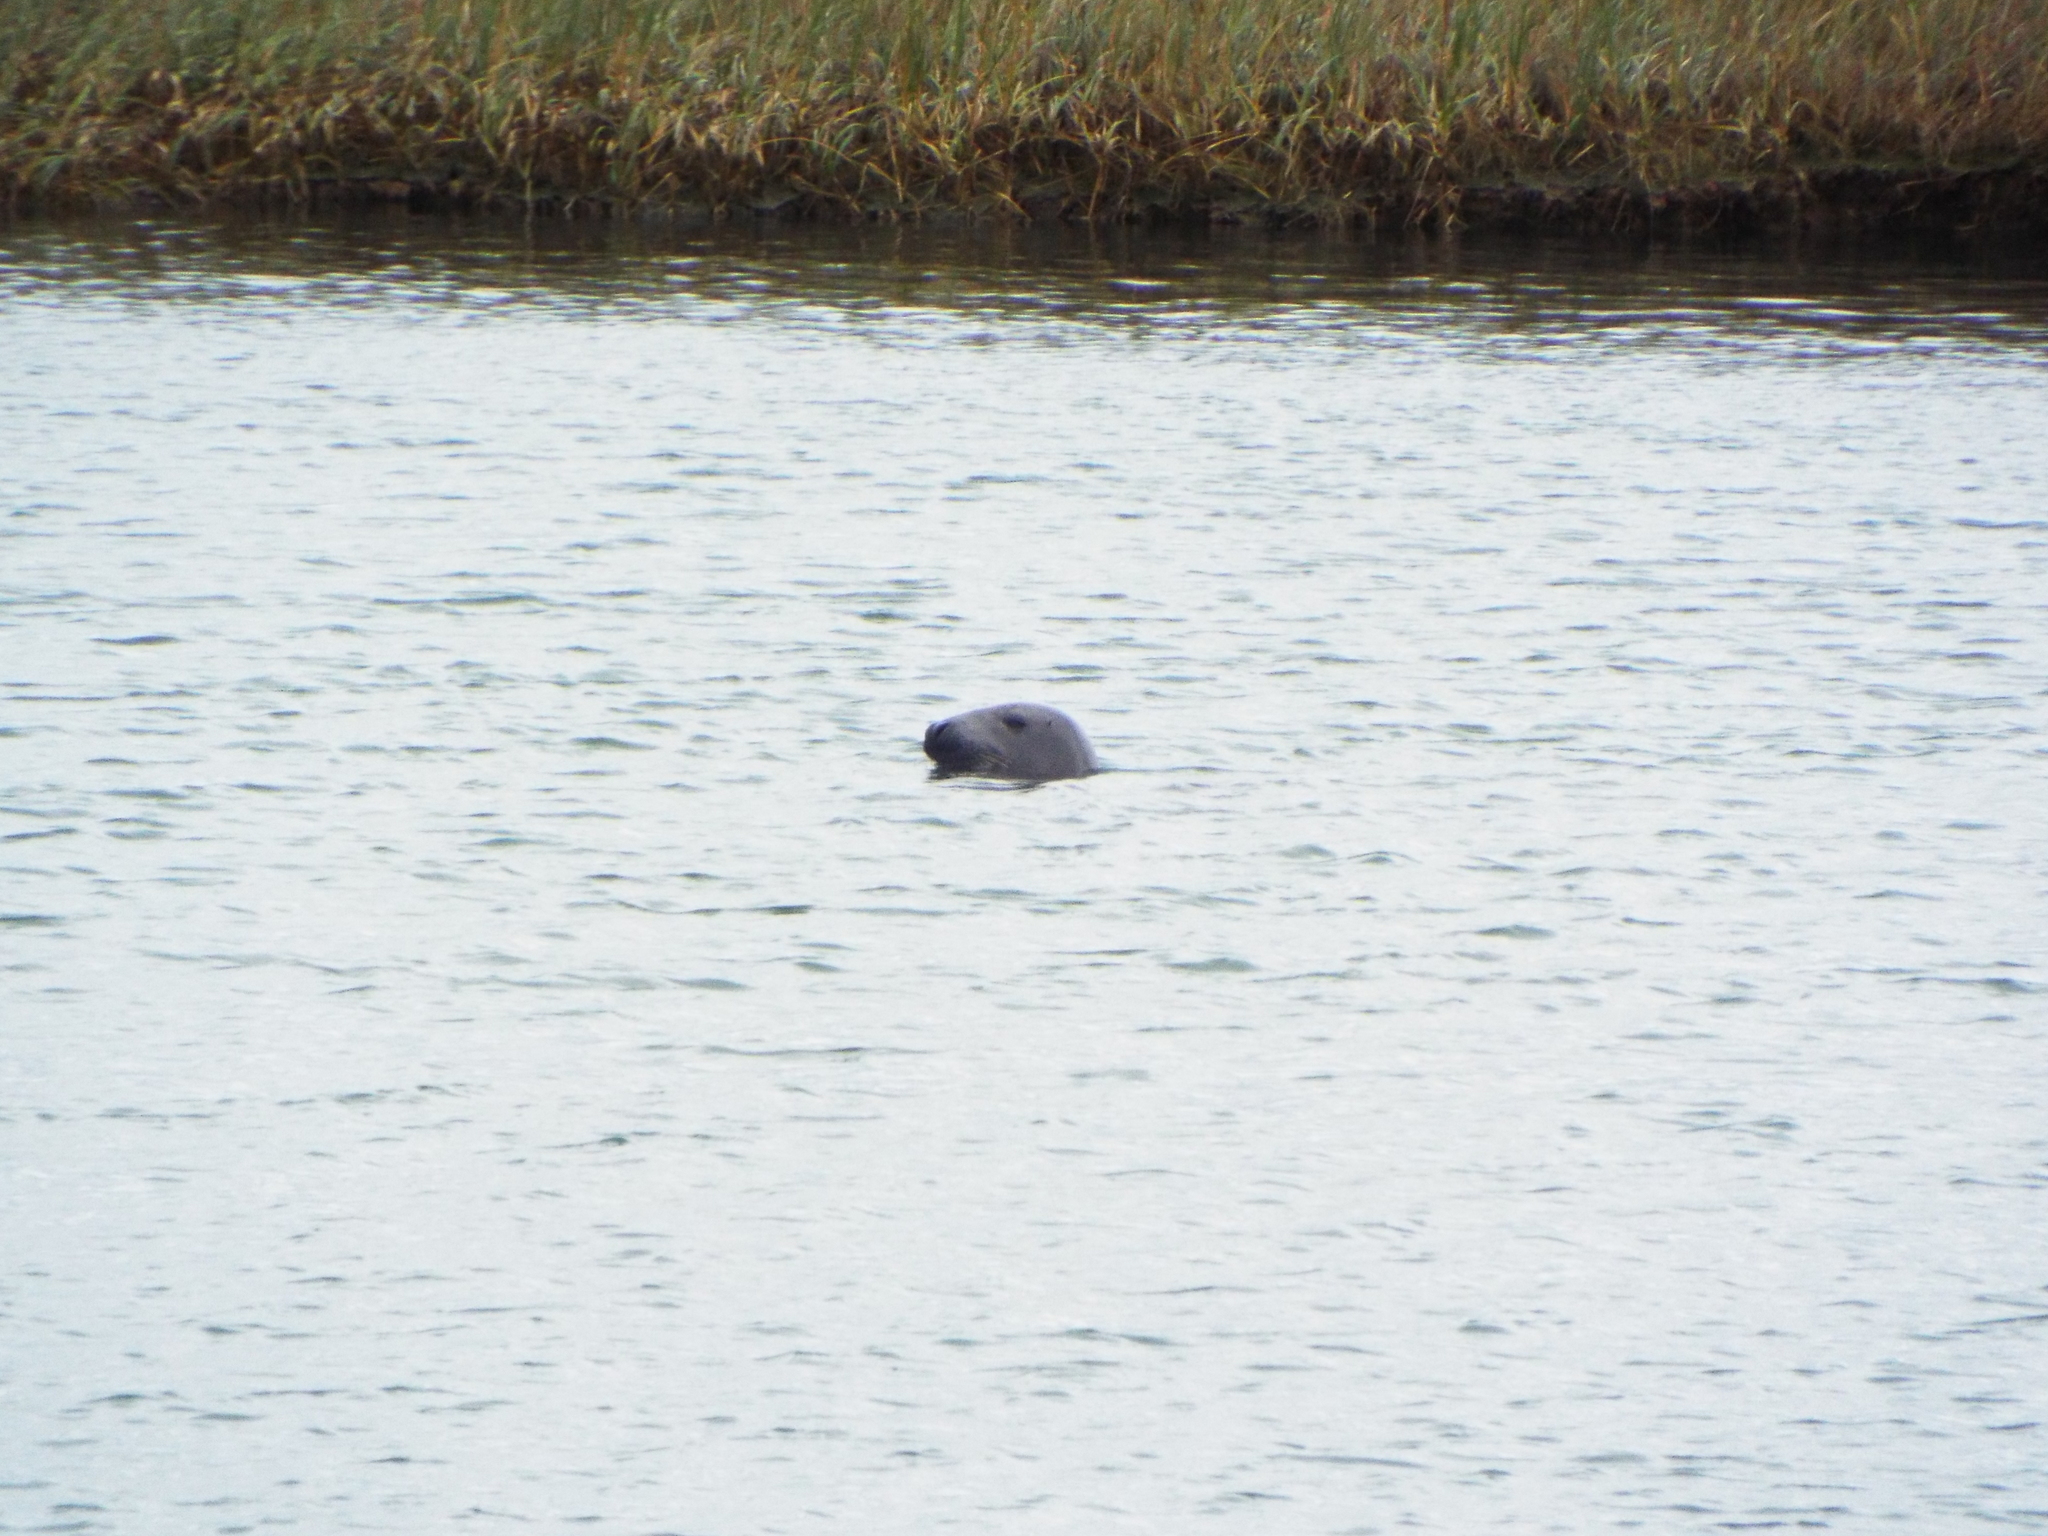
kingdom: Animalia
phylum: Chordata
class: Mammalia
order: Carnivora
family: Phocidae
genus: Halichoerus
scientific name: Halichoerus grypus
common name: Grey seal
